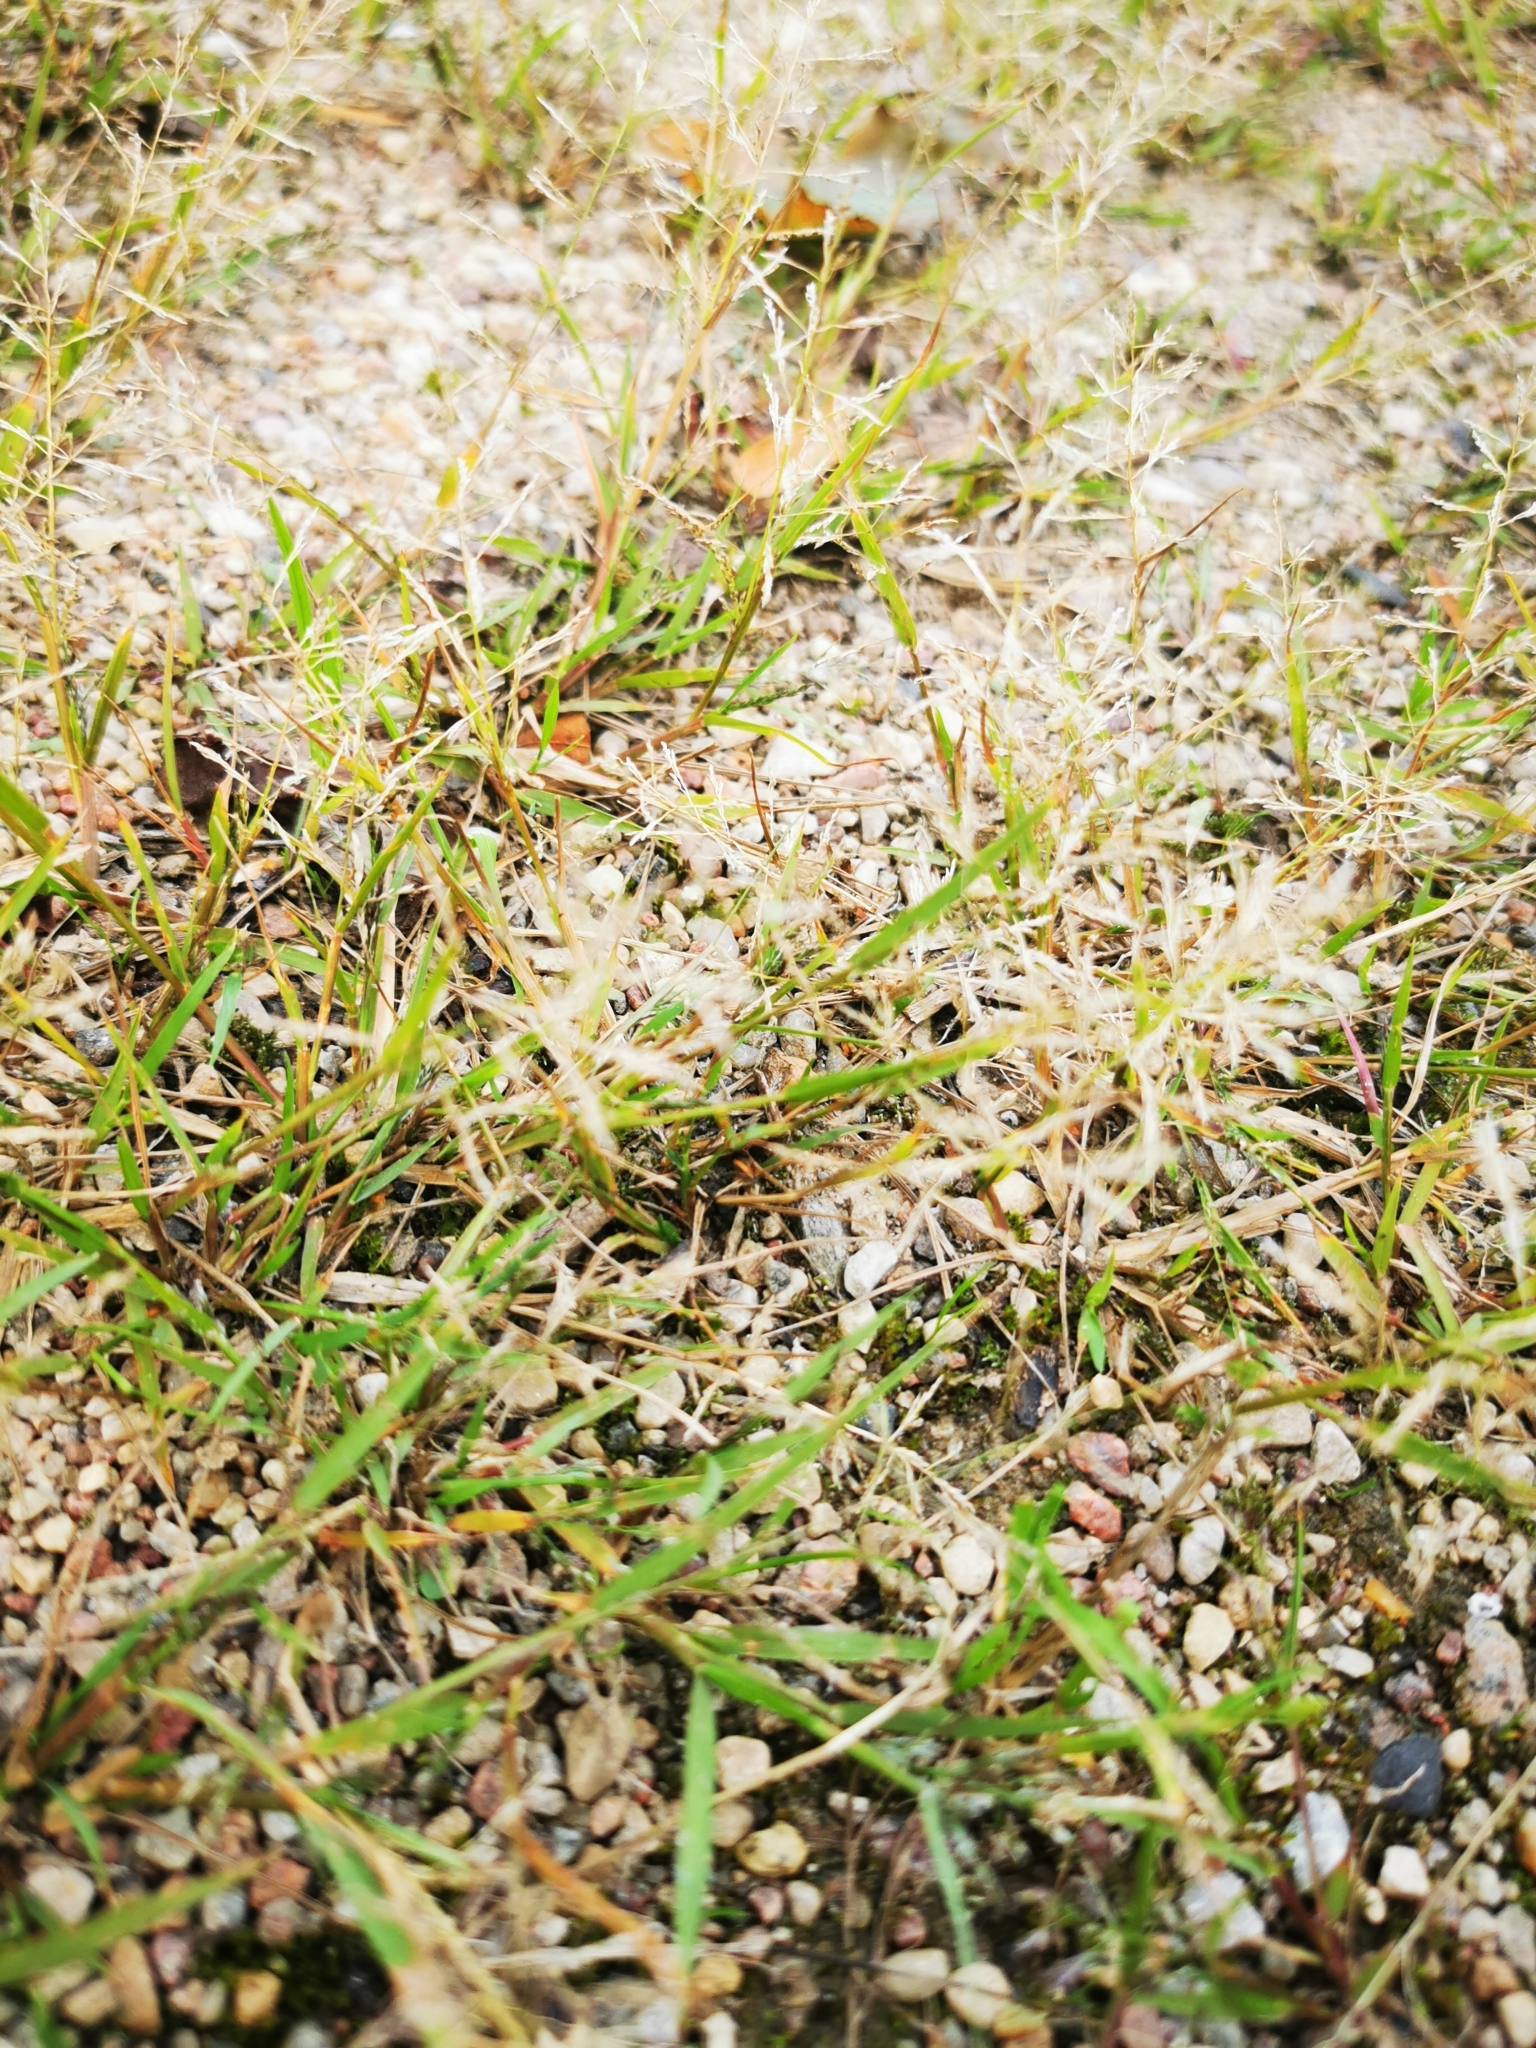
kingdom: Plantae
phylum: Tracheophyta
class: Liliopsida
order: Poales
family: Poaceae
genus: Puccinellia
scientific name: Puccinellia distans
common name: Weeping alkaligrass
